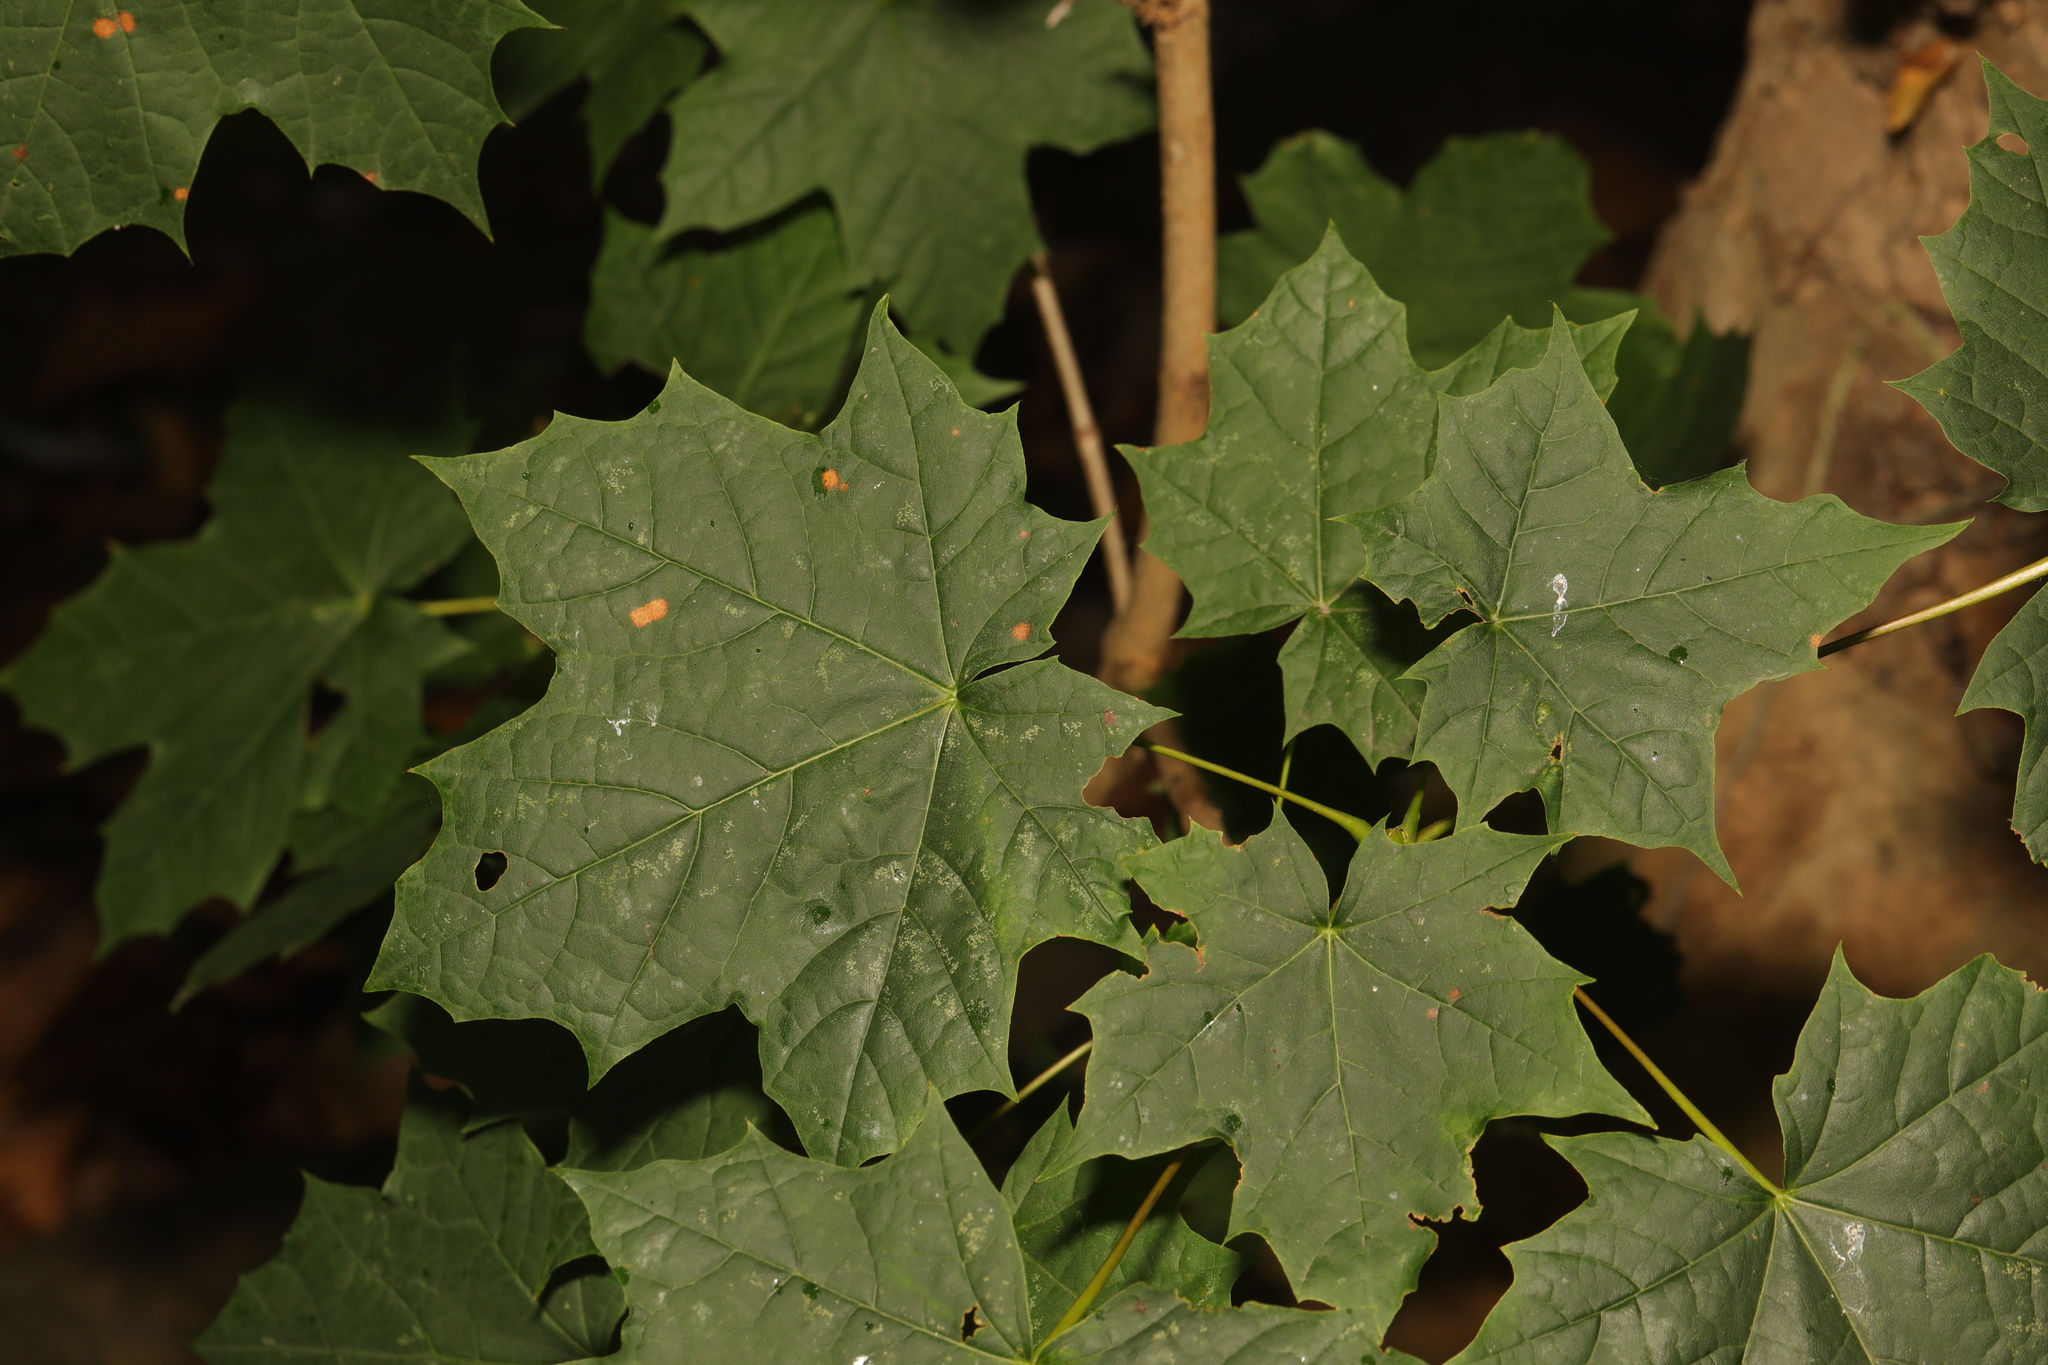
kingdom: Plantae
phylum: Tracheophyta
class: Magnoliopsida
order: Sapindales
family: Sapindaceae
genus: Acer
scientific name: Acer platanoides
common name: Norway maple
